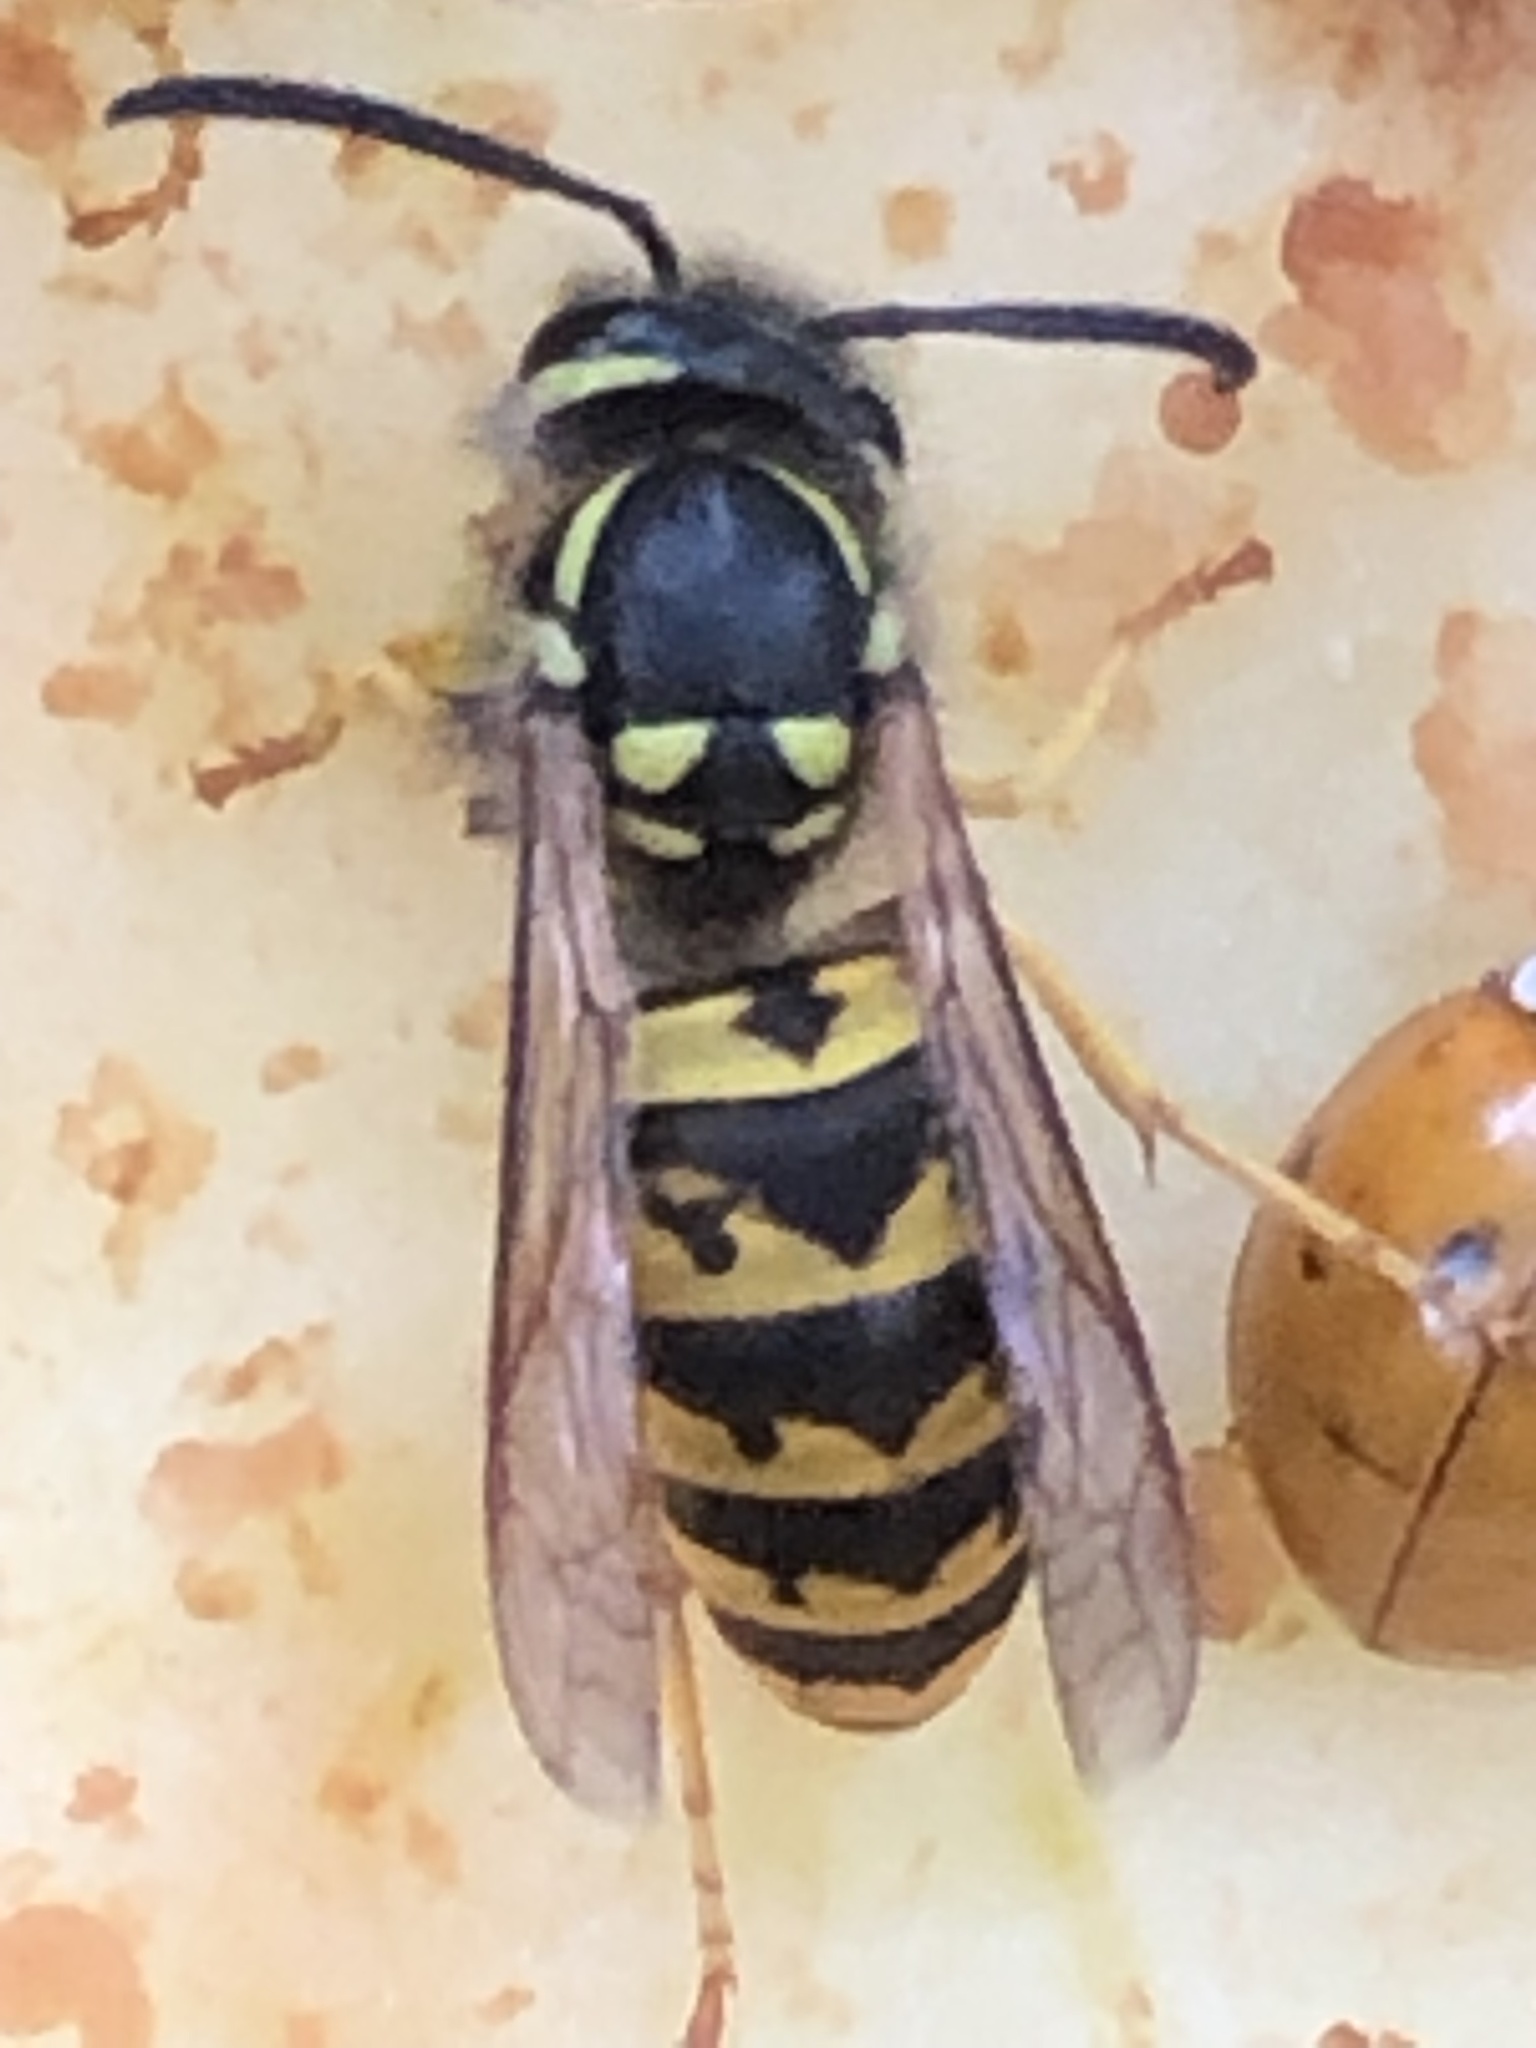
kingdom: Animalia
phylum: Arthropoda
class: Insecta
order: Hymenoptera
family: Vespidae
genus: Vespula
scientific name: Vespula germanica
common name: German wasp
